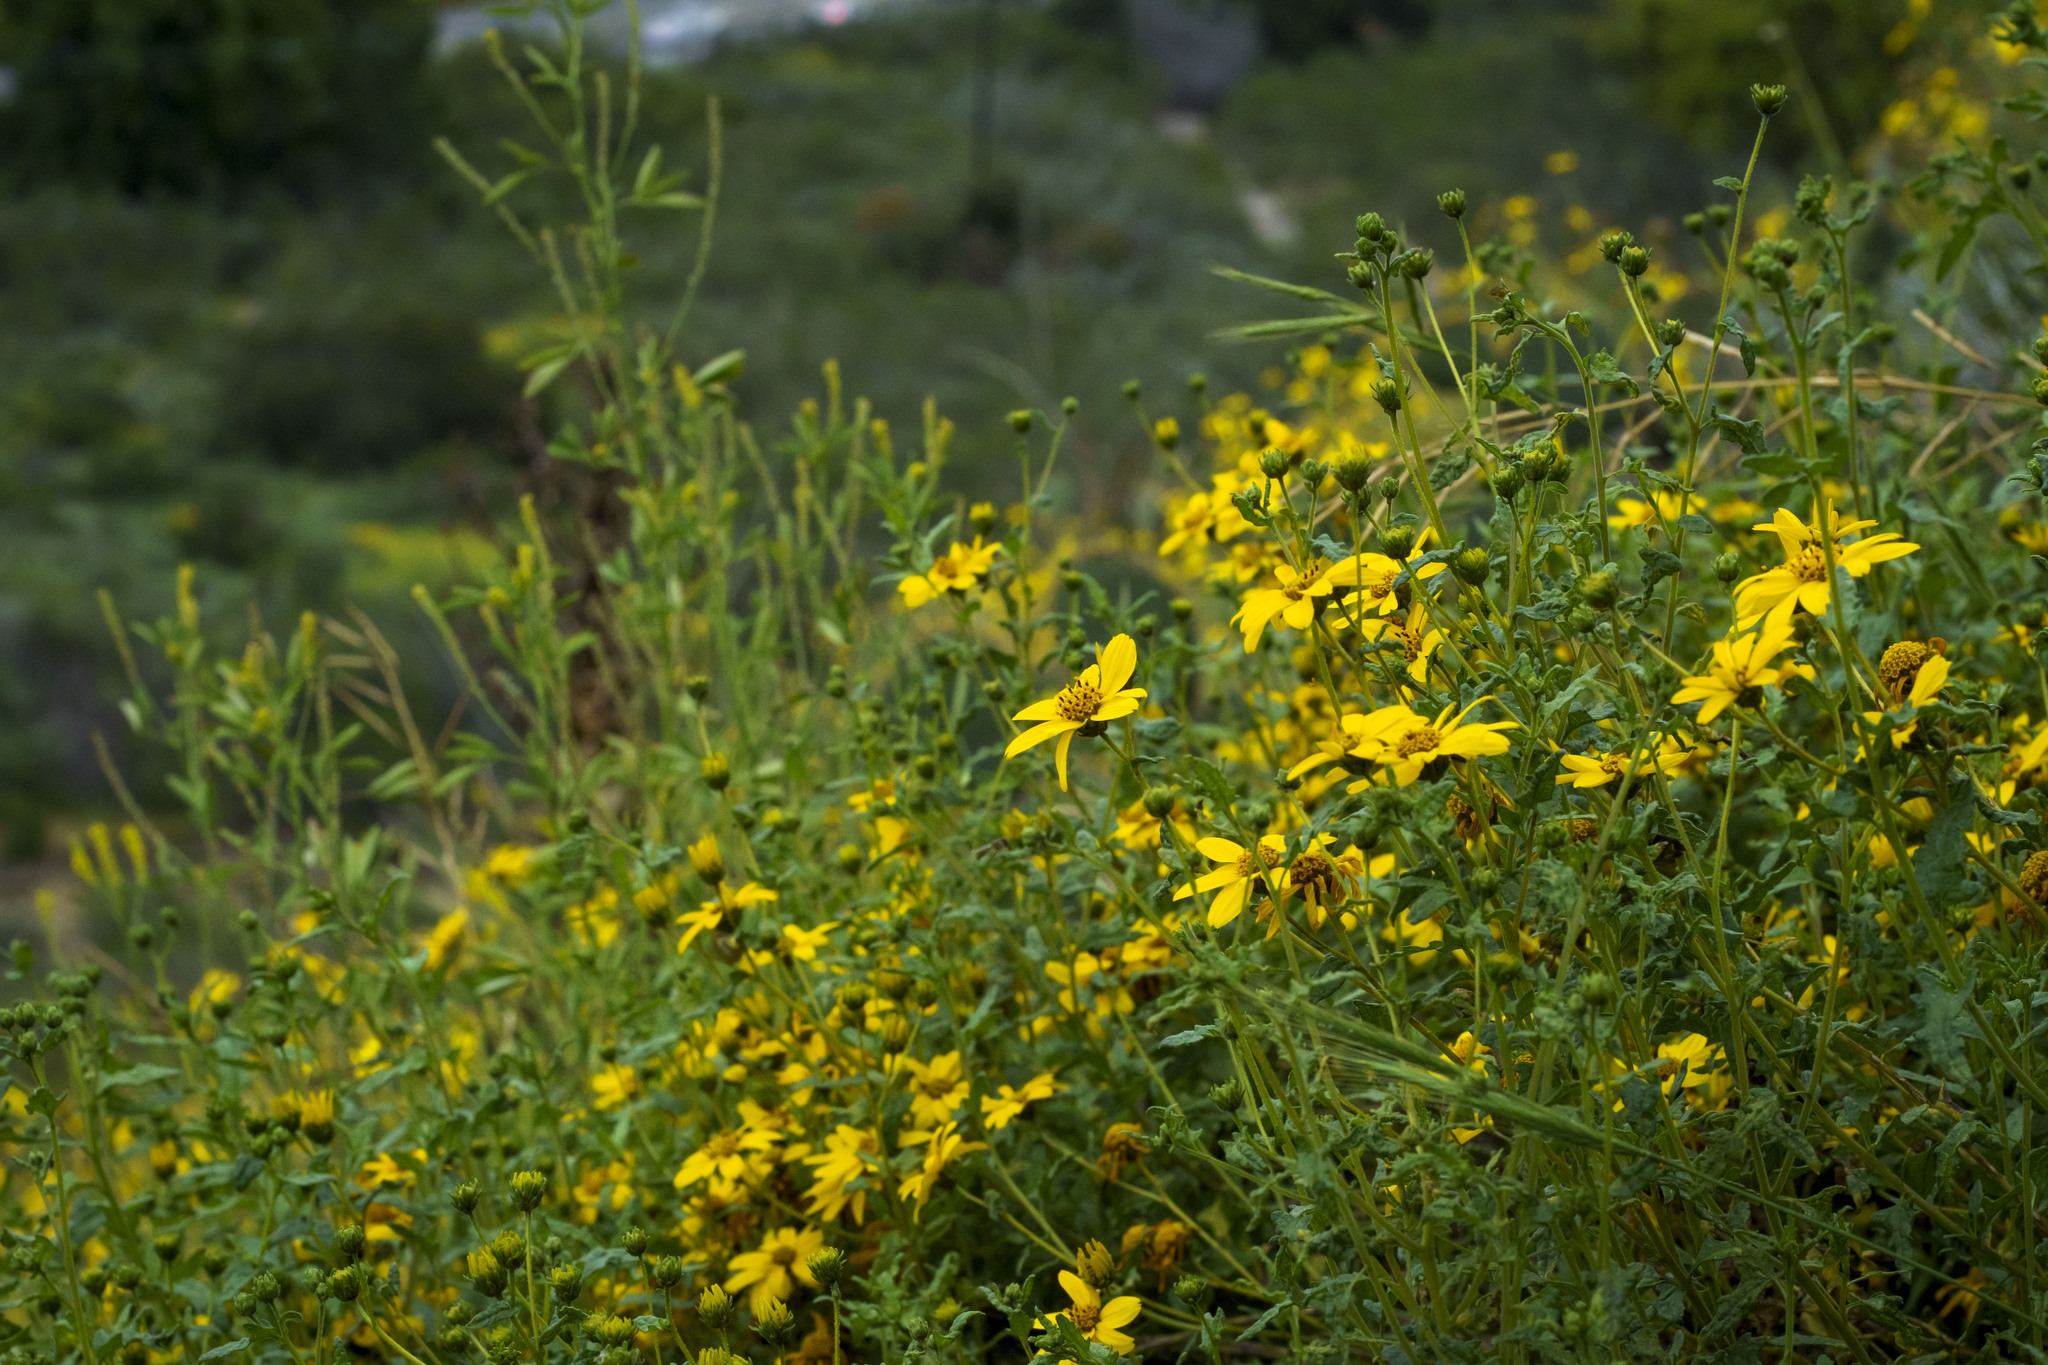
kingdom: Plantae
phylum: Tracheophyta
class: Magnoliopsida
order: Asterales
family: Asteraceae
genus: Bahiopsis
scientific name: Bahiopsis laciniata
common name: San diego county viguiera
